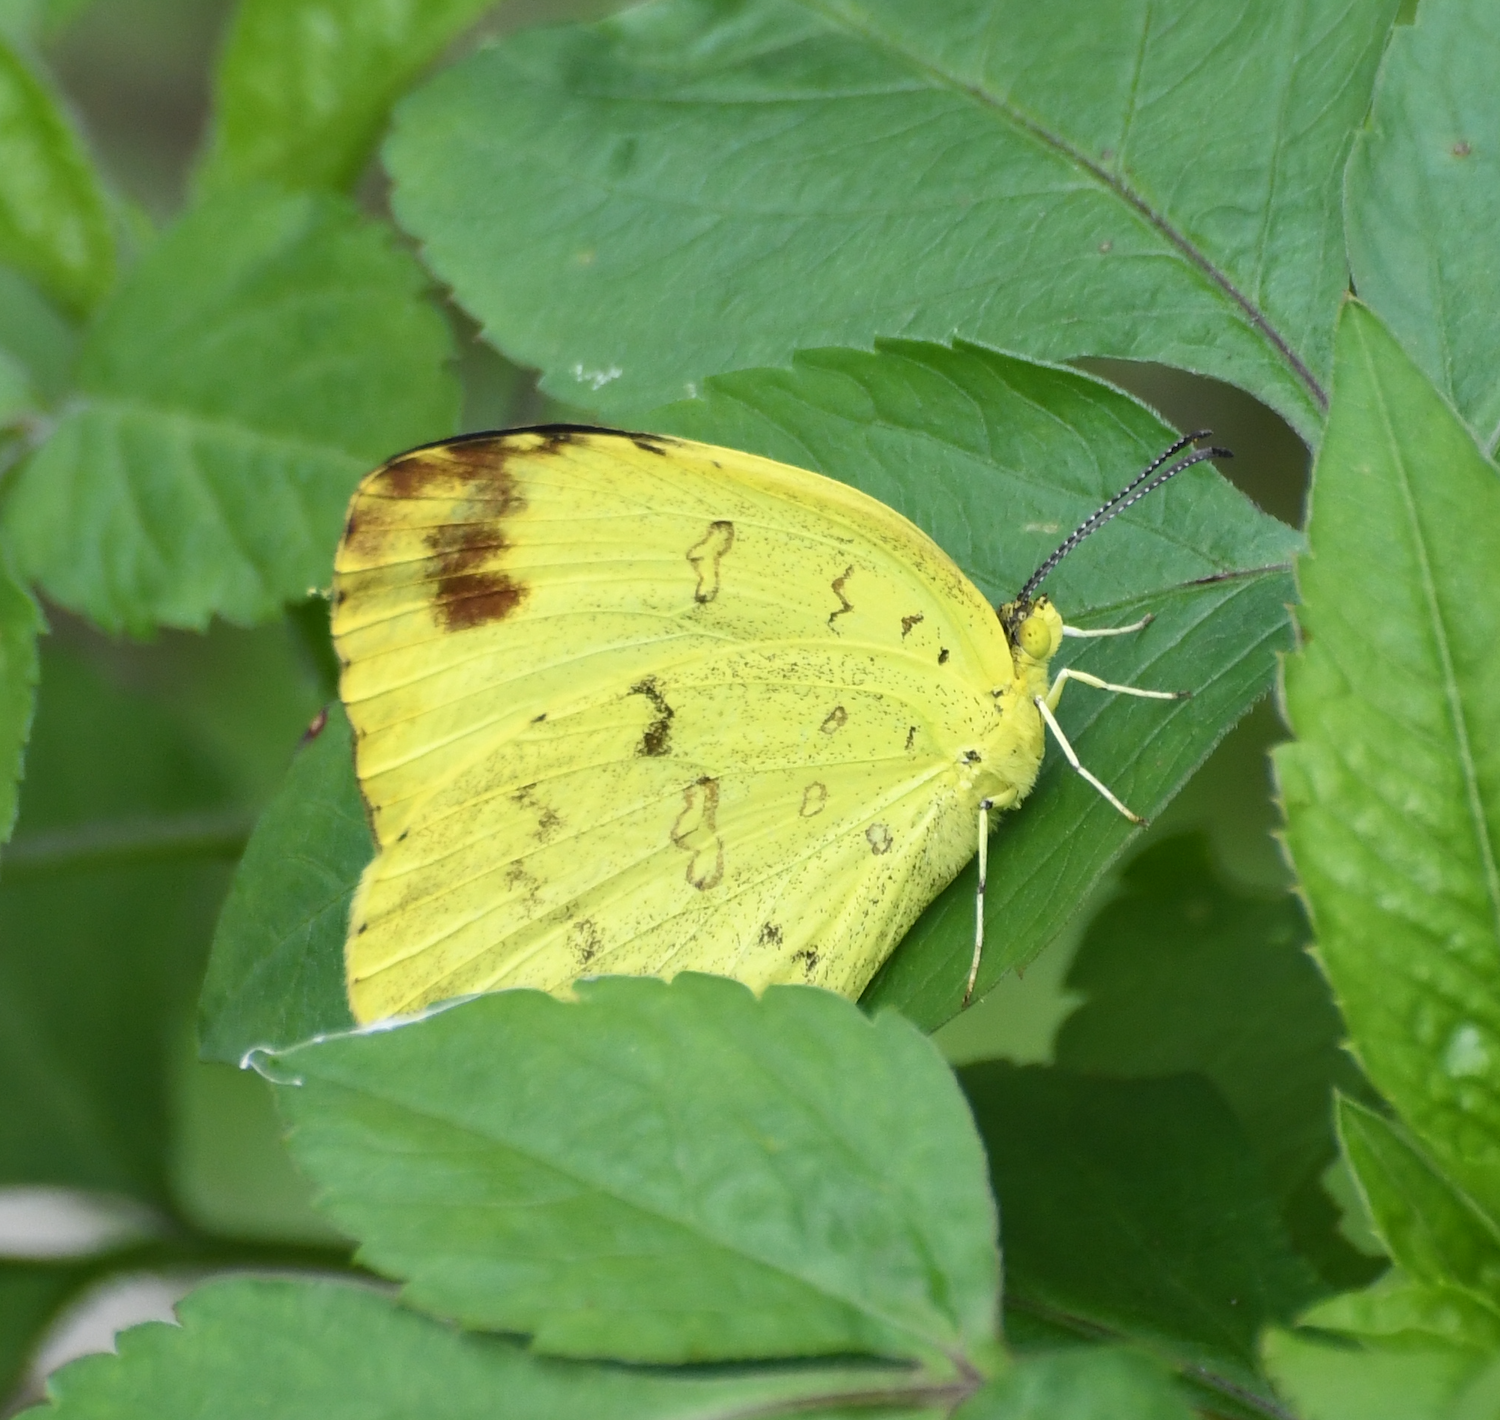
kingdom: Animalia
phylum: Arthropoda
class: Insecta
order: Lepidoptera
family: Pieridae
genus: Eurema
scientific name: Eurema blanda
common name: Three-spot grass yellow
